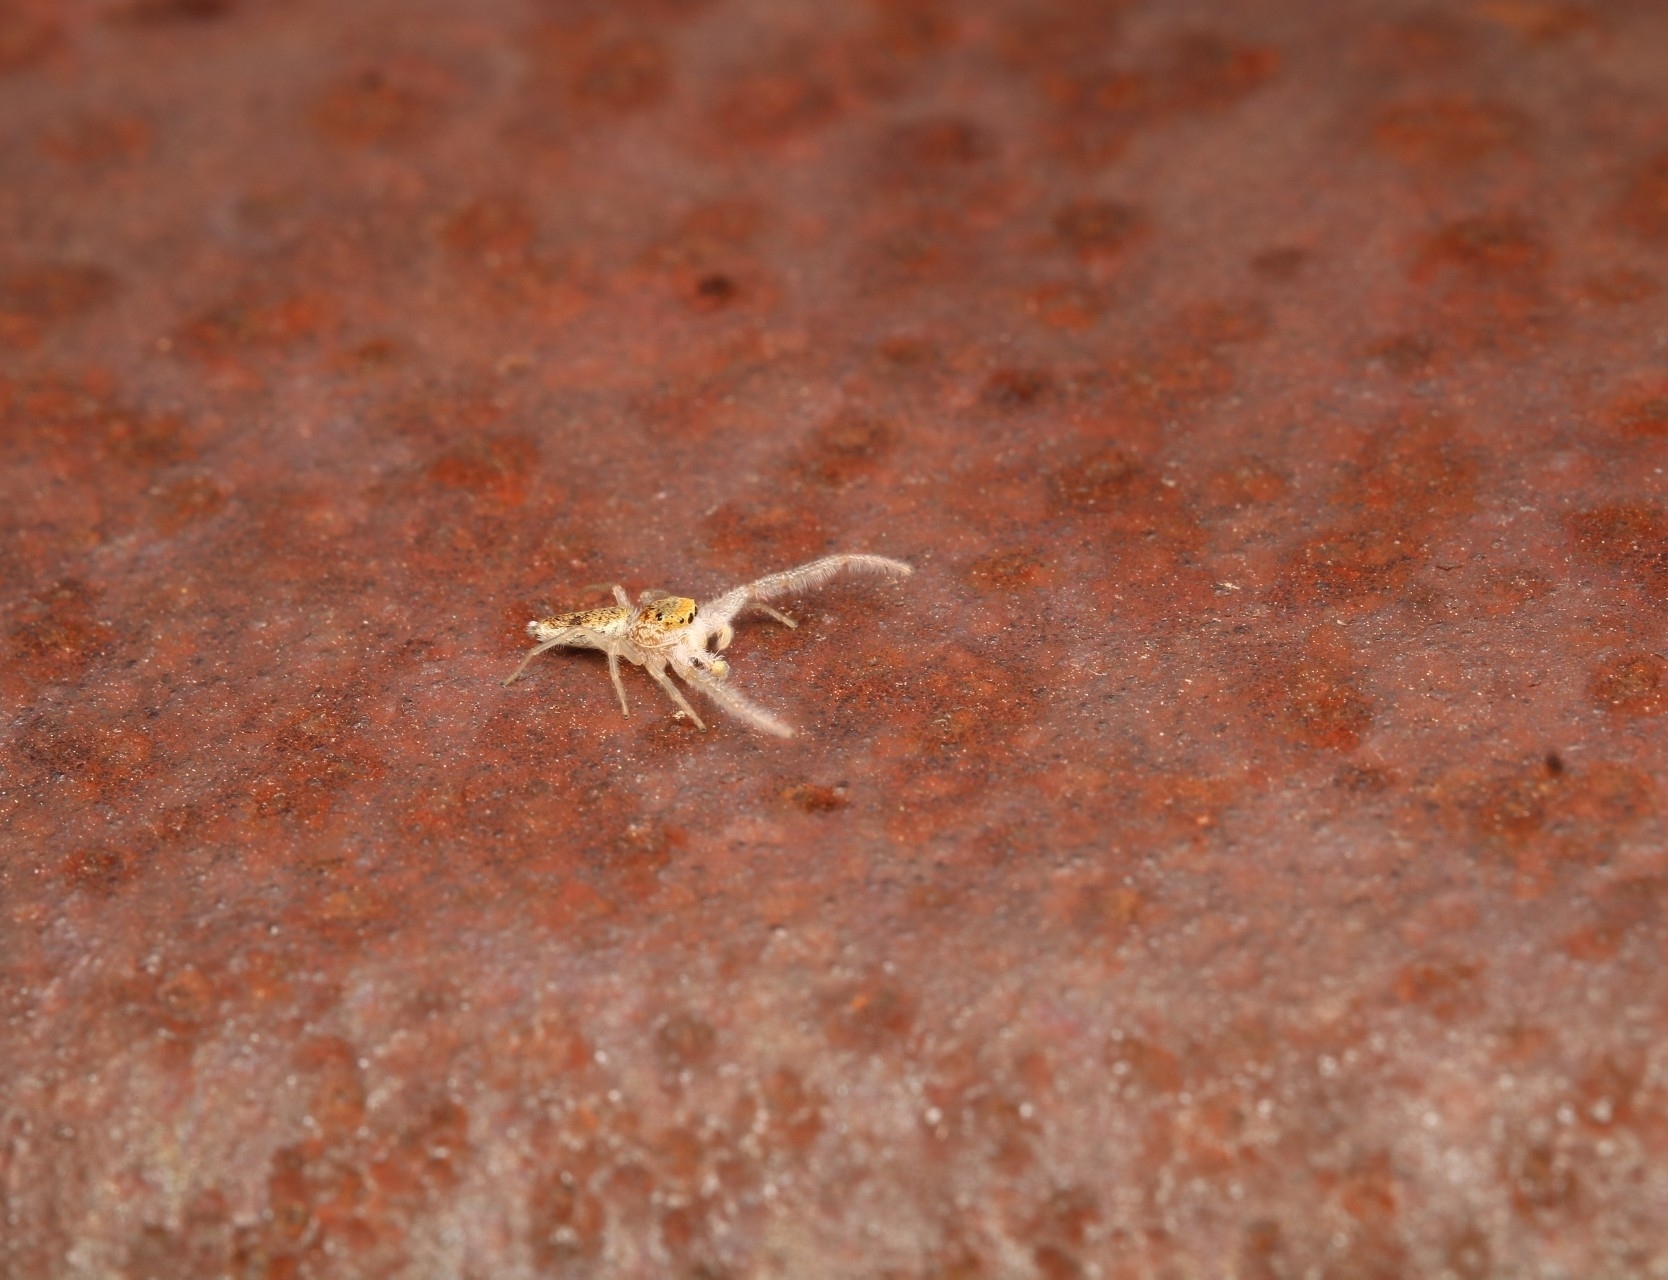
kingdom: Animalia
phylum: Arthropoda
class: Arachnida
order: Araneae
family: Salticidae
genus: Hentzia
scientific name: Hentzia mitrata
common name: White-jawed jumping spider
